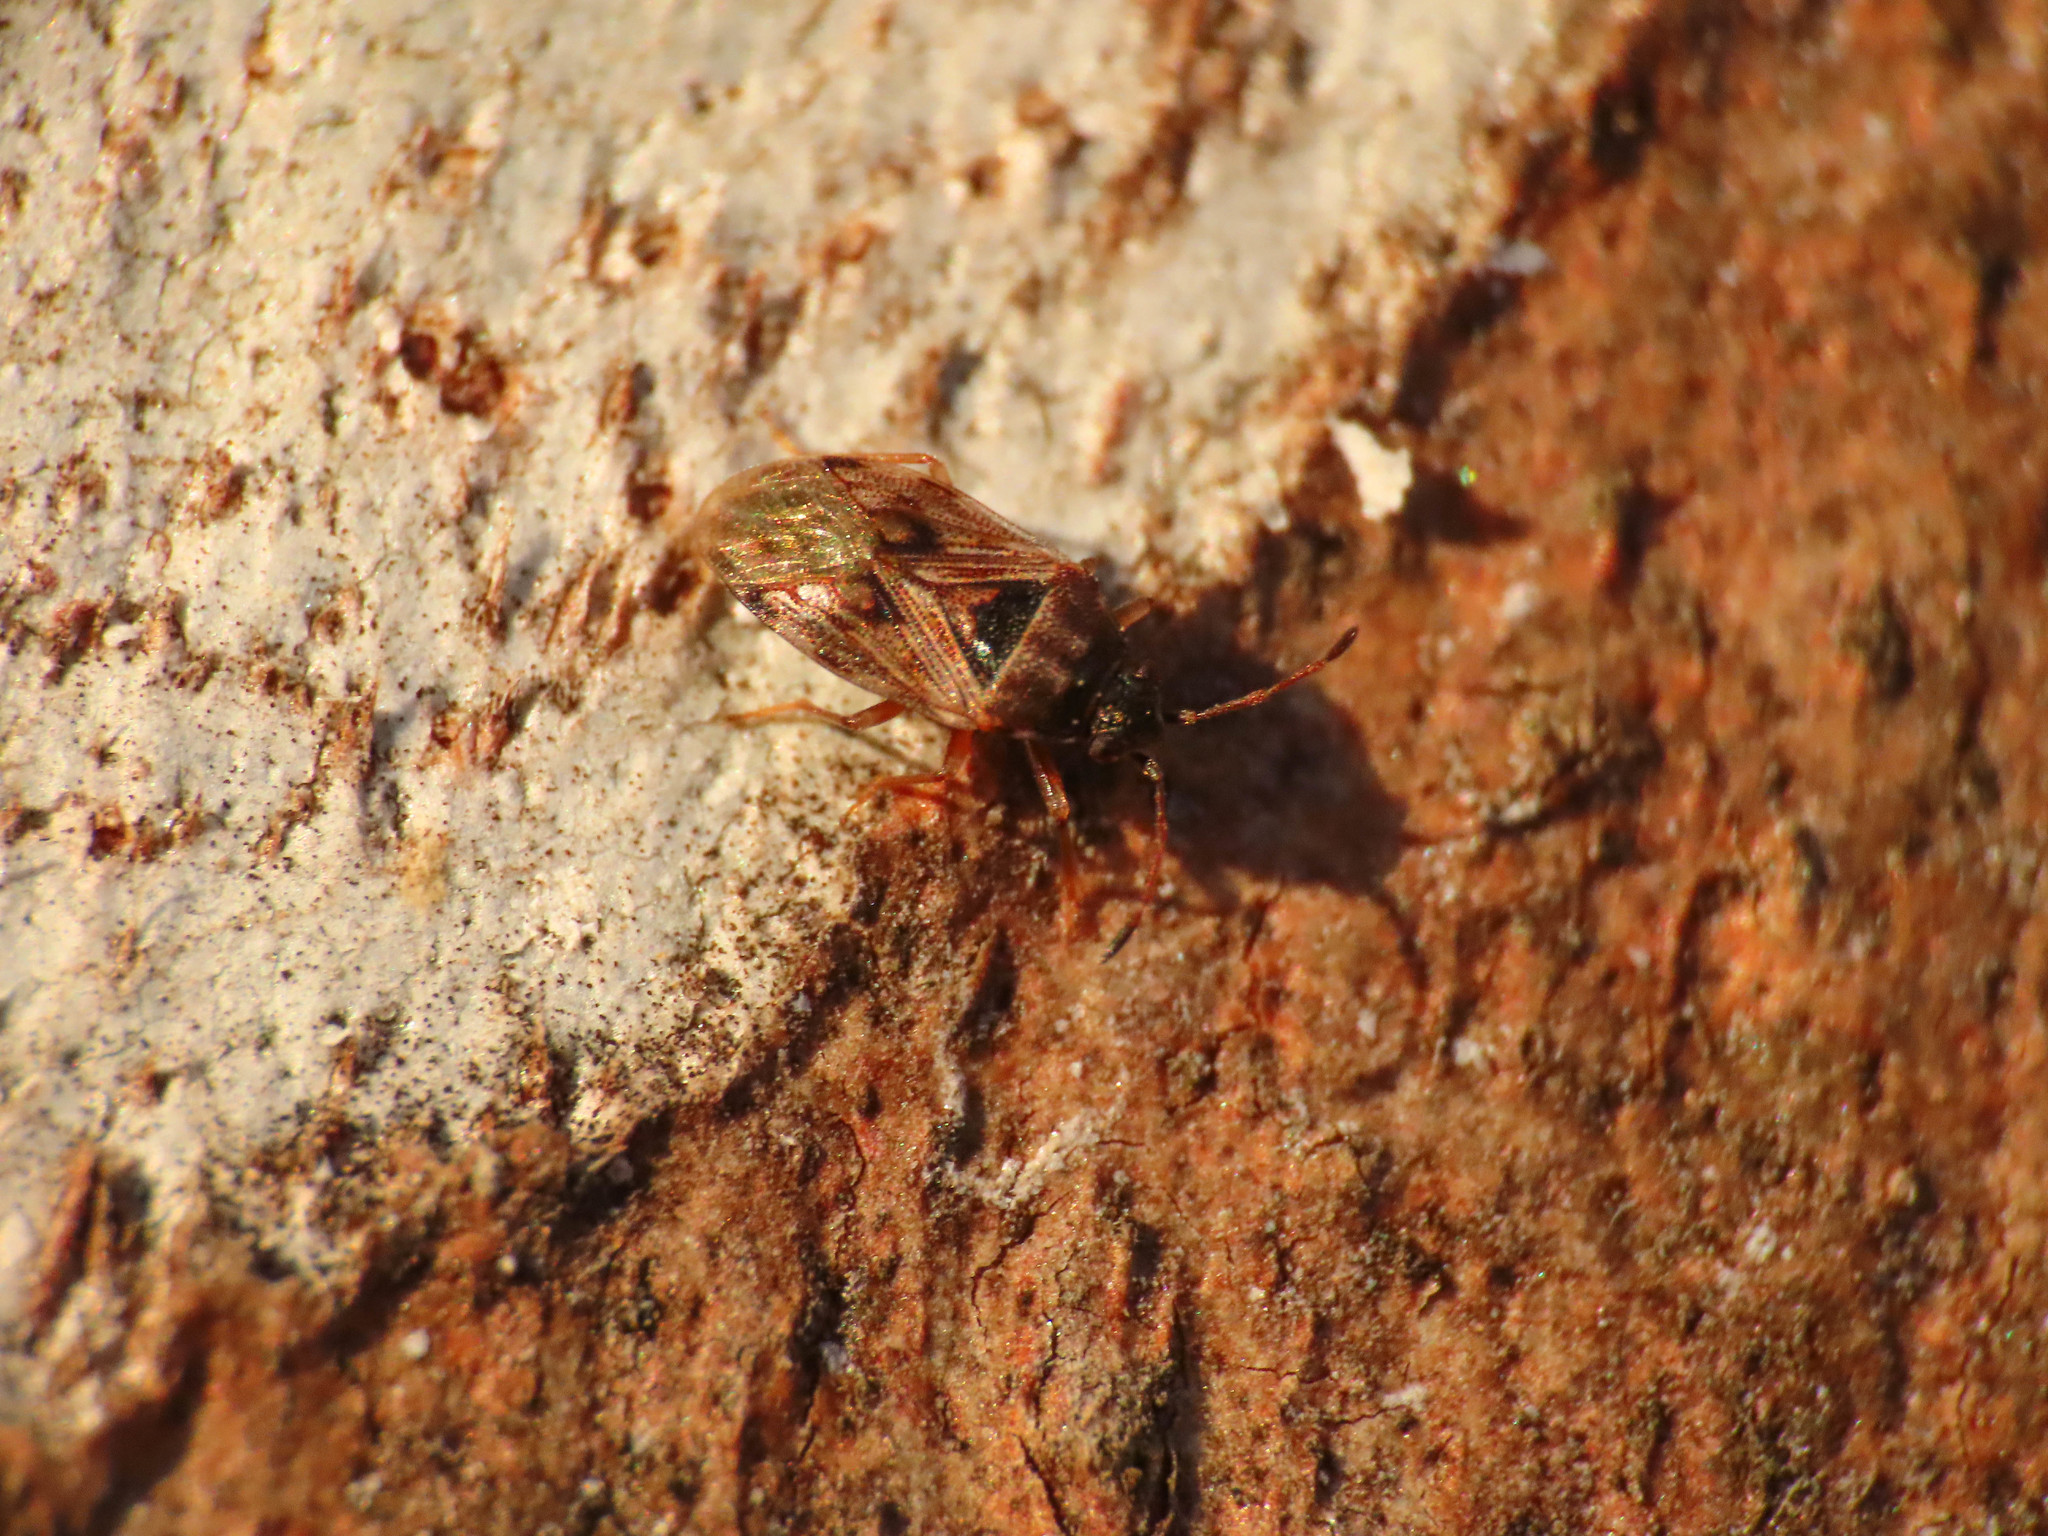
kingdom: Animalia
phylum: Arthropoda
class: Insecta
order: Hemiptera
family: Heterogastridae
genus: Platyplax
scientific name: Platyplax inermis
